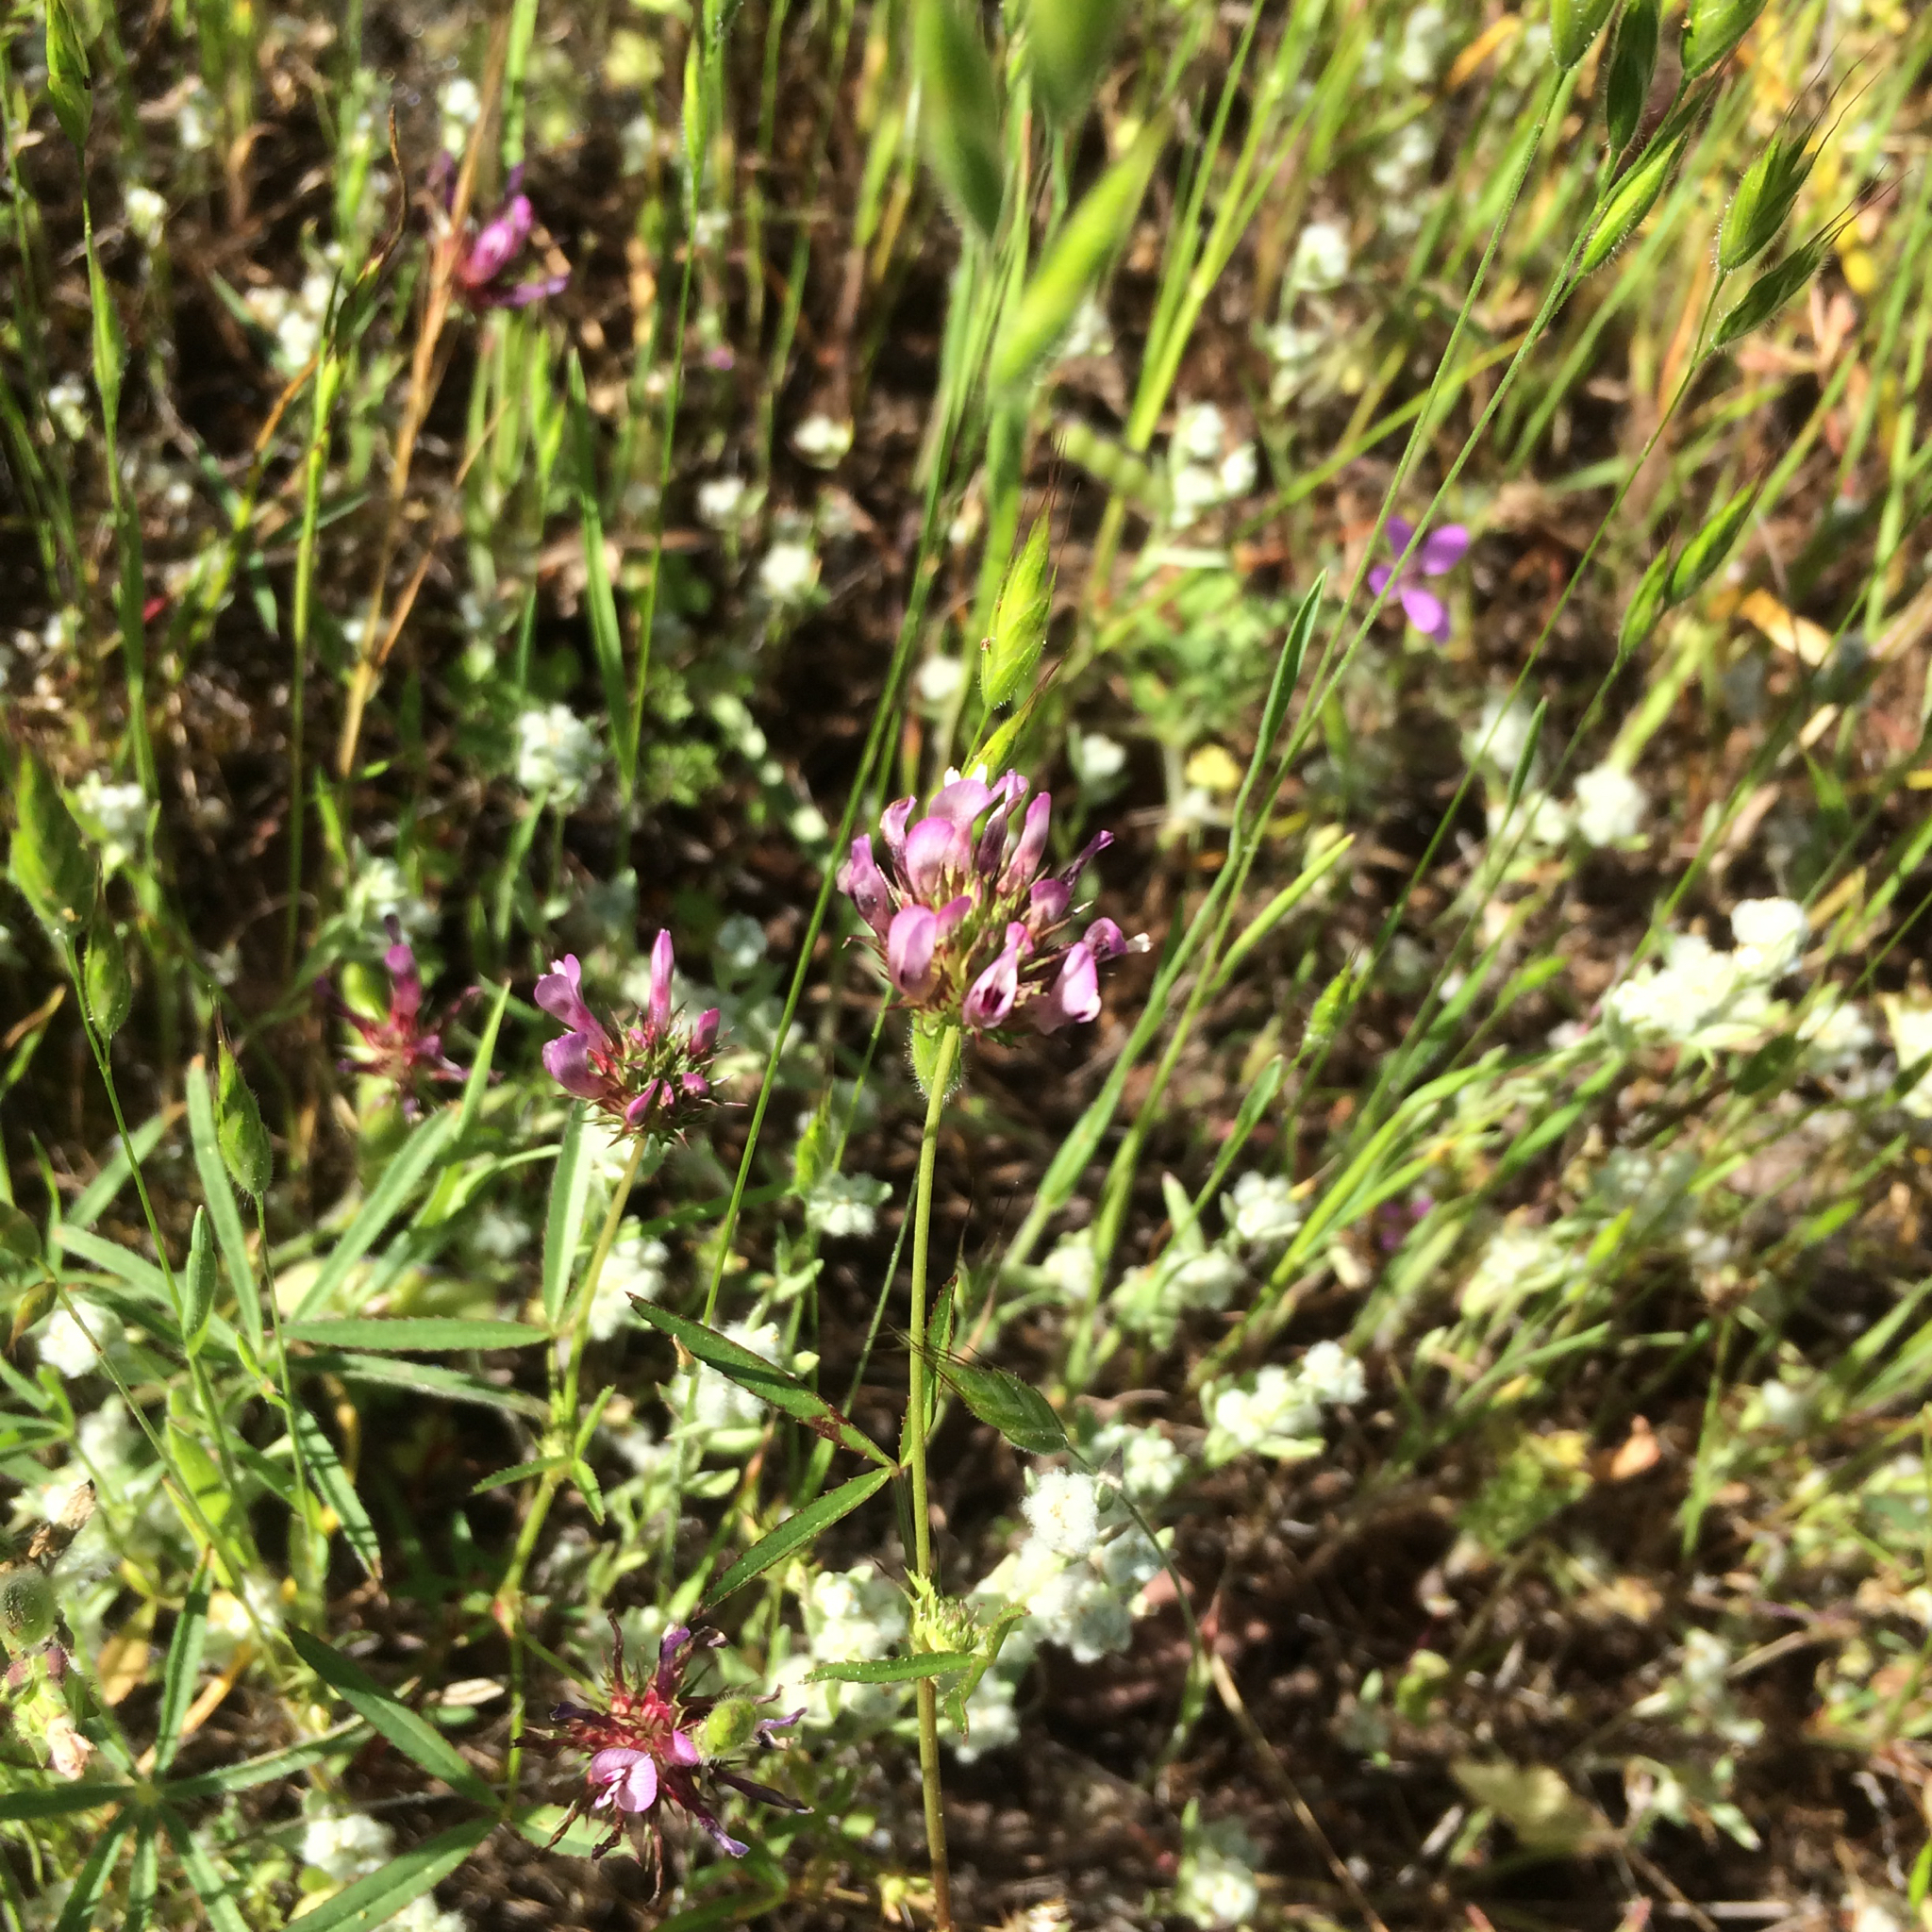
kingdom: Plantae
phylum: Tracheophyta
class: Magnoliopsida
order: Fabales
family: Fabaceae
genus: Trifolium
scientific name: Trifolium willdenovii
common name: Tomcat clover
